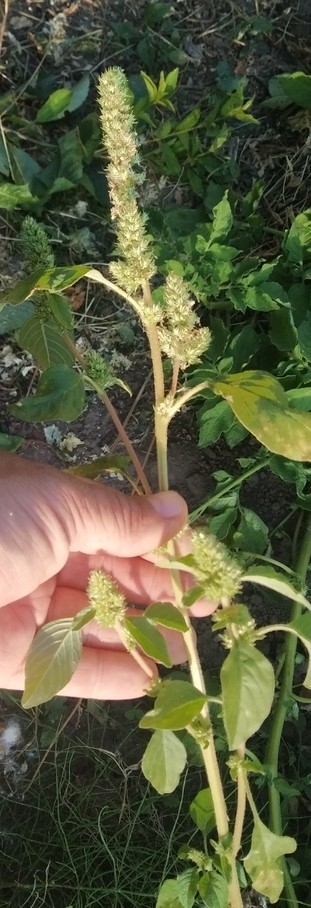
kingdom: Plantae
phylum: Tracheophyta
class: Magnoliopsida
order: Caryophyllales
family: Amaranthaceae
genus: Amaranthus
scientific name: Amaranthus retroflexus
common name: Redroot amaranth
